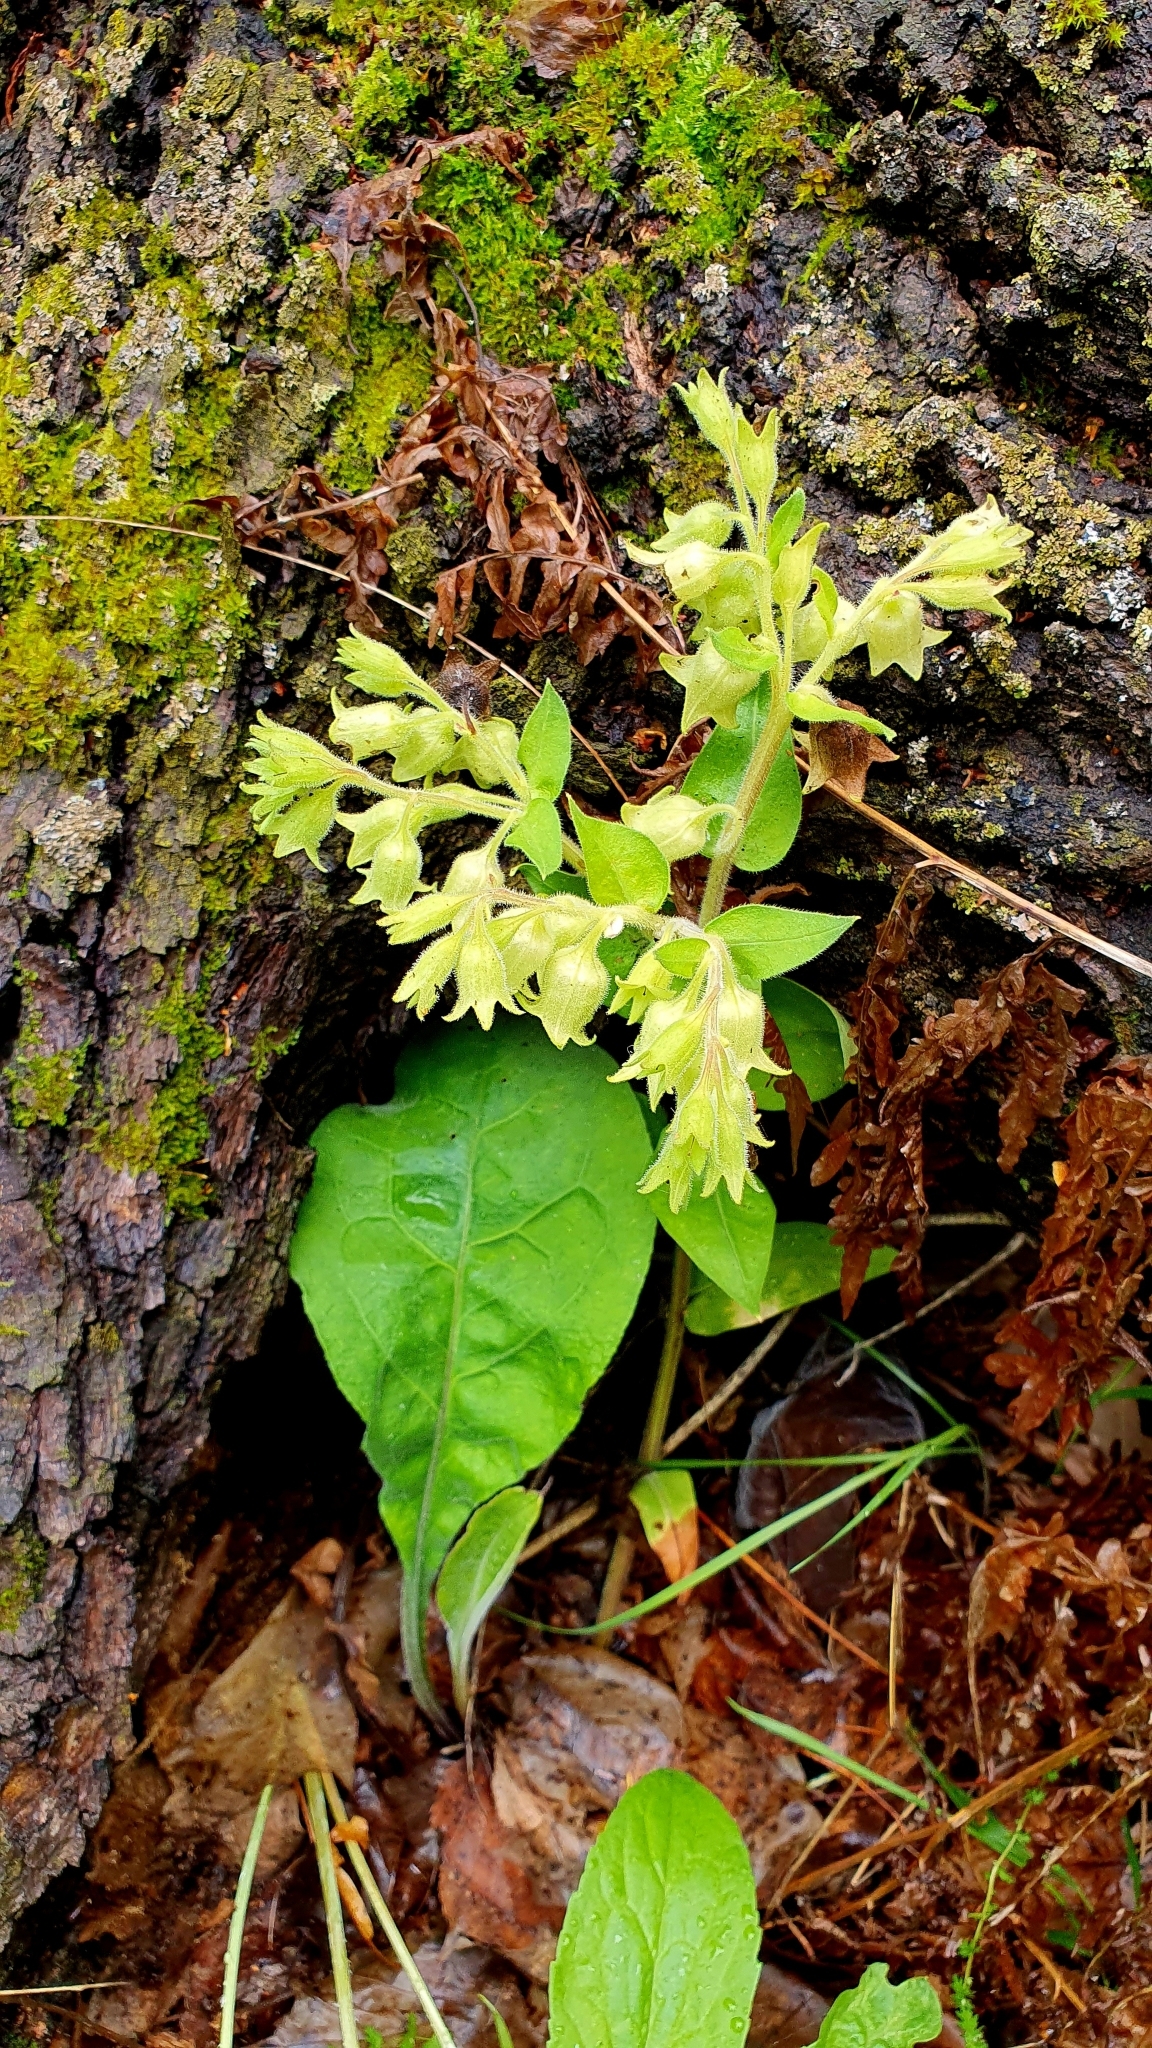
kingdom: Plantae
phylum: Tracheophyta
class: Magnoliopsida
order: Boraginales
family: Boraginaceae
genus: Pulmonaria
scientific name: Pulmonaria obscura
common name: Suffolk lungwort
